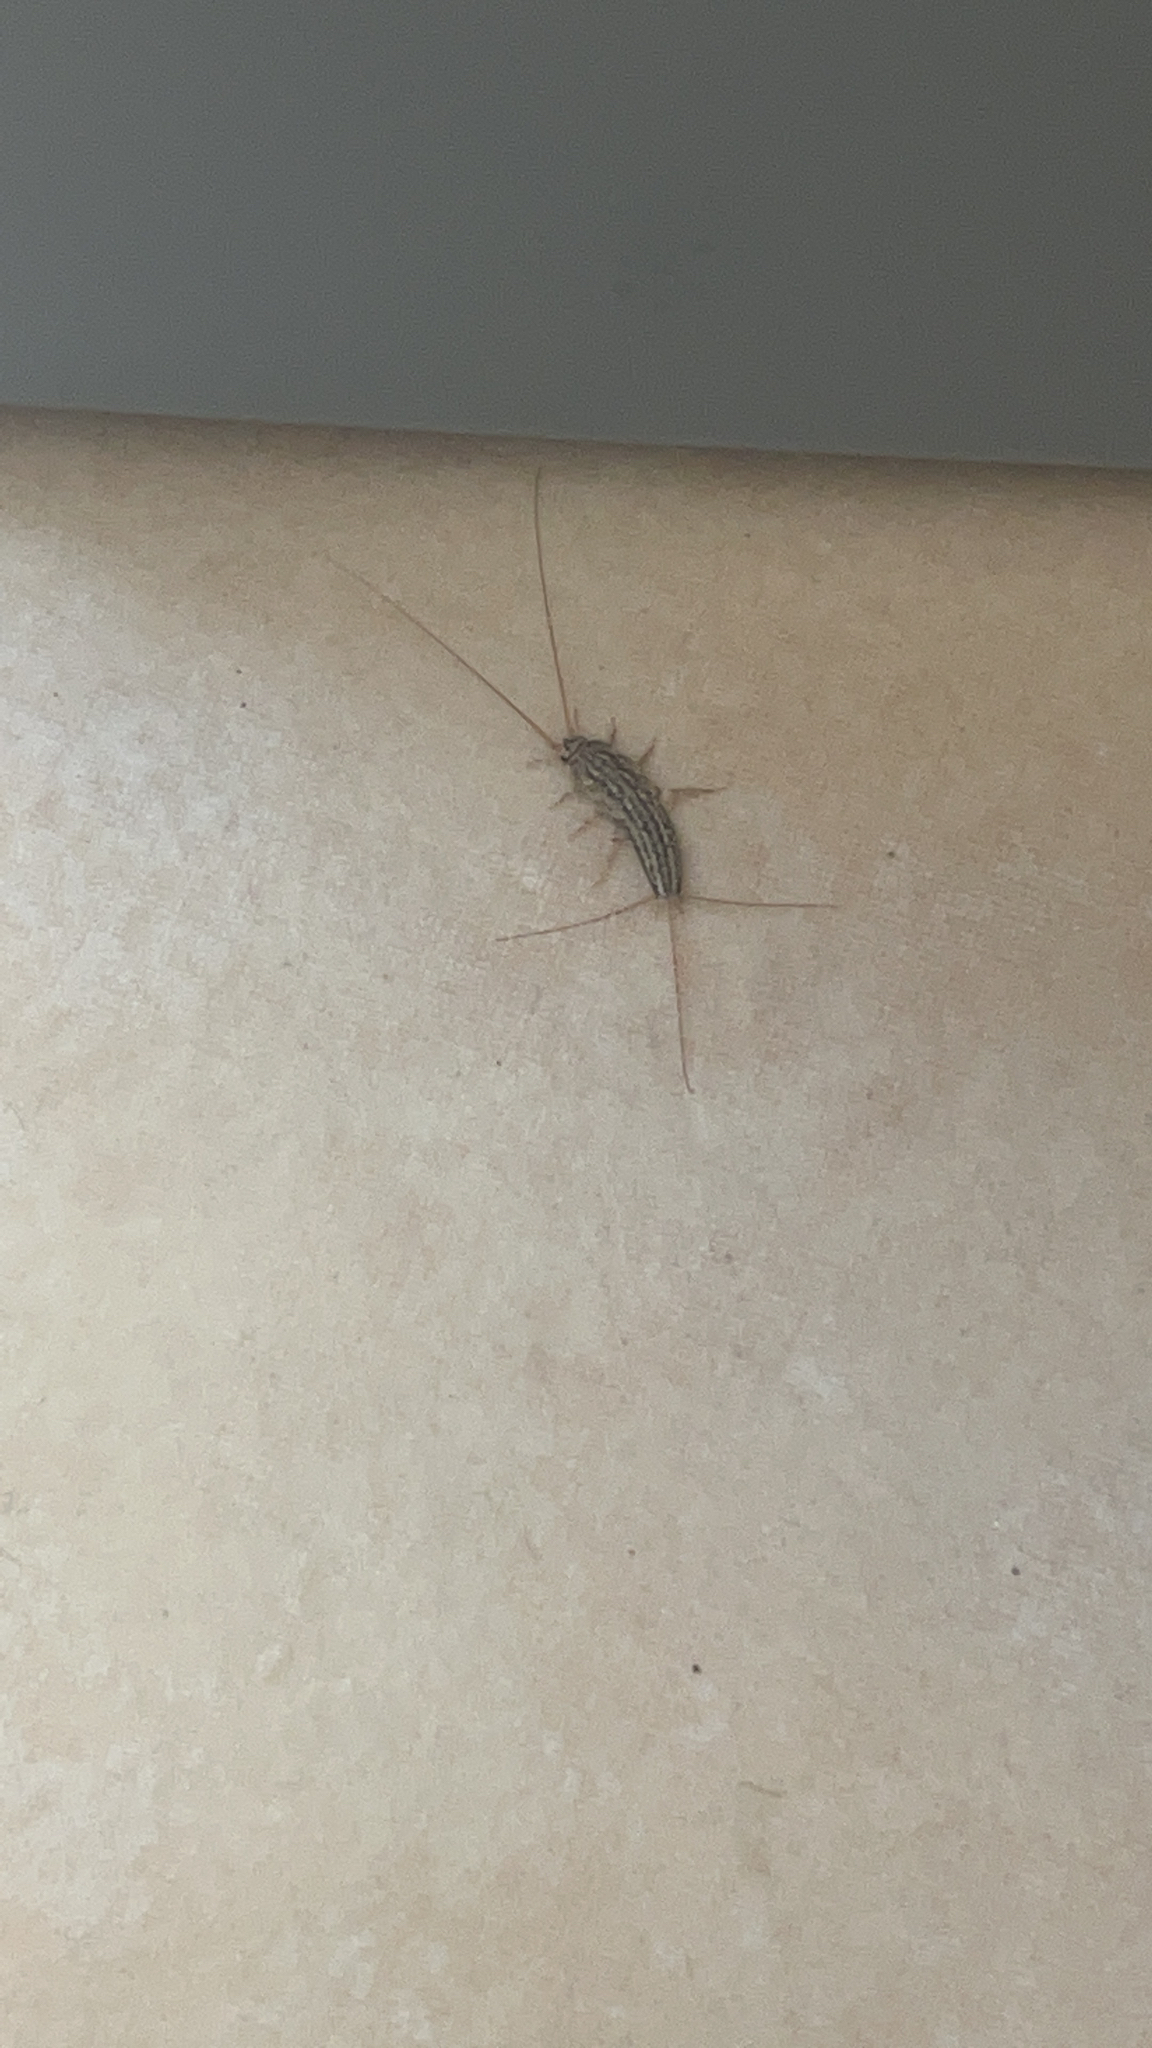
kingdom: Animalia
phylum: Arthropoda
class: Insecta
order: Zygentoma
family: Lepismatidae
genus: Ctenolepisma
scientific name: Ctenolepisma lineata
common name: Four-lined silverfish
